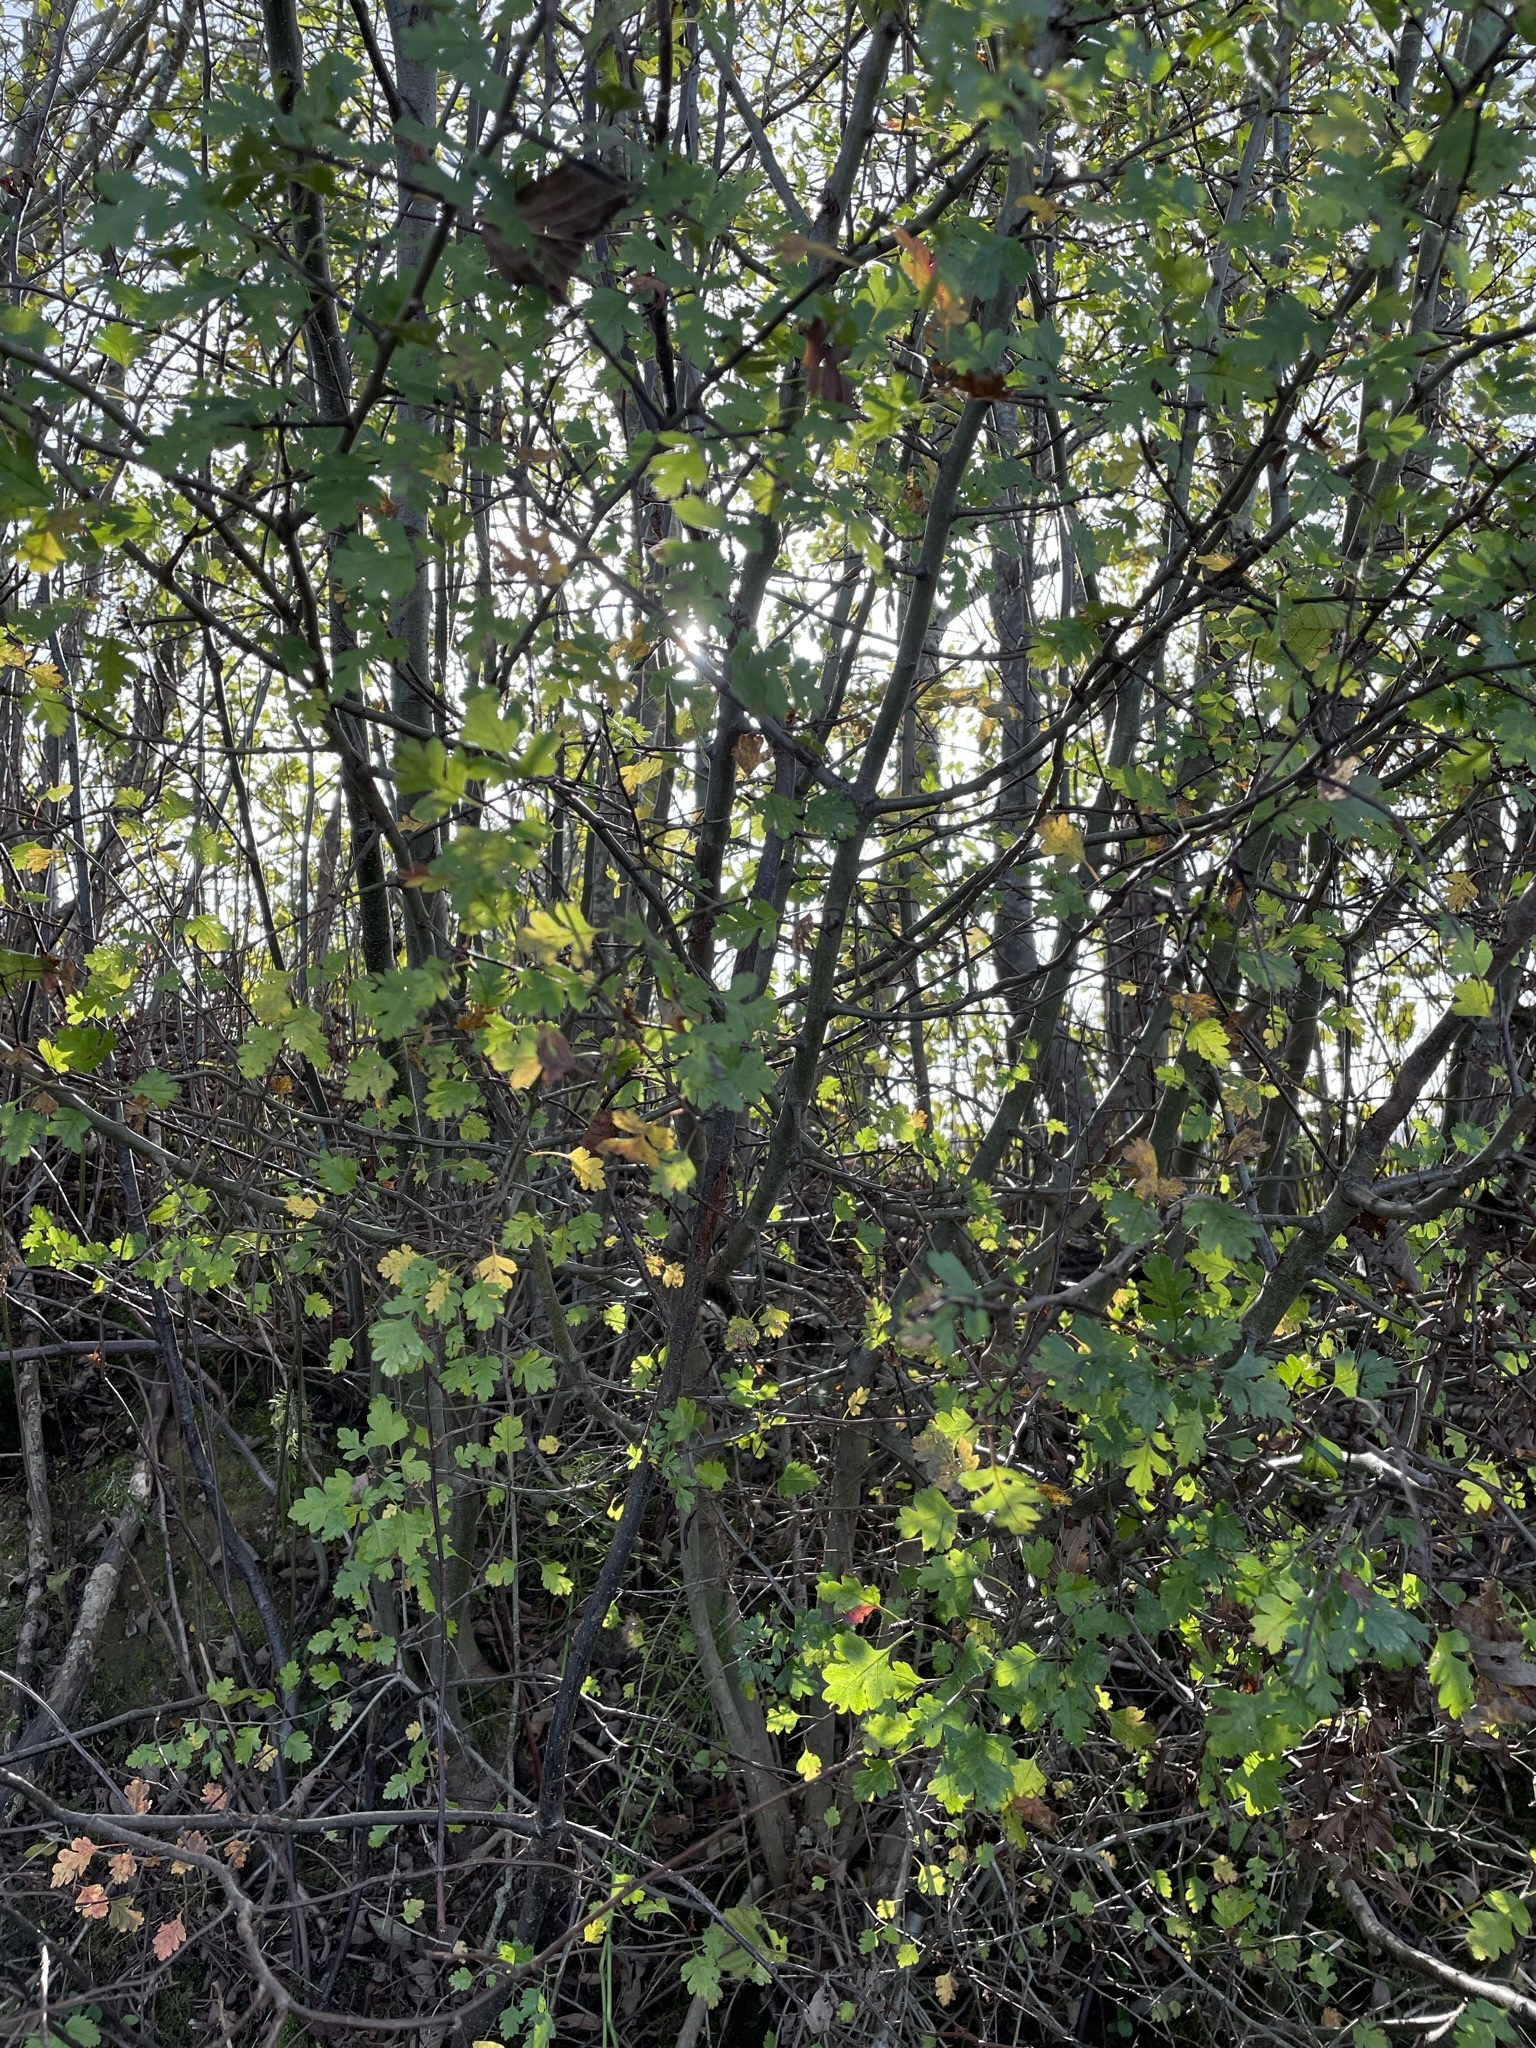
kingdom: Plantae
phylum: Tracheophyta
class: Magnoliopsida
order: Rosales
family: Rosaceae
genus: Crataegus
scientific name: Crataegus monogyna
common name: Hawthorn
